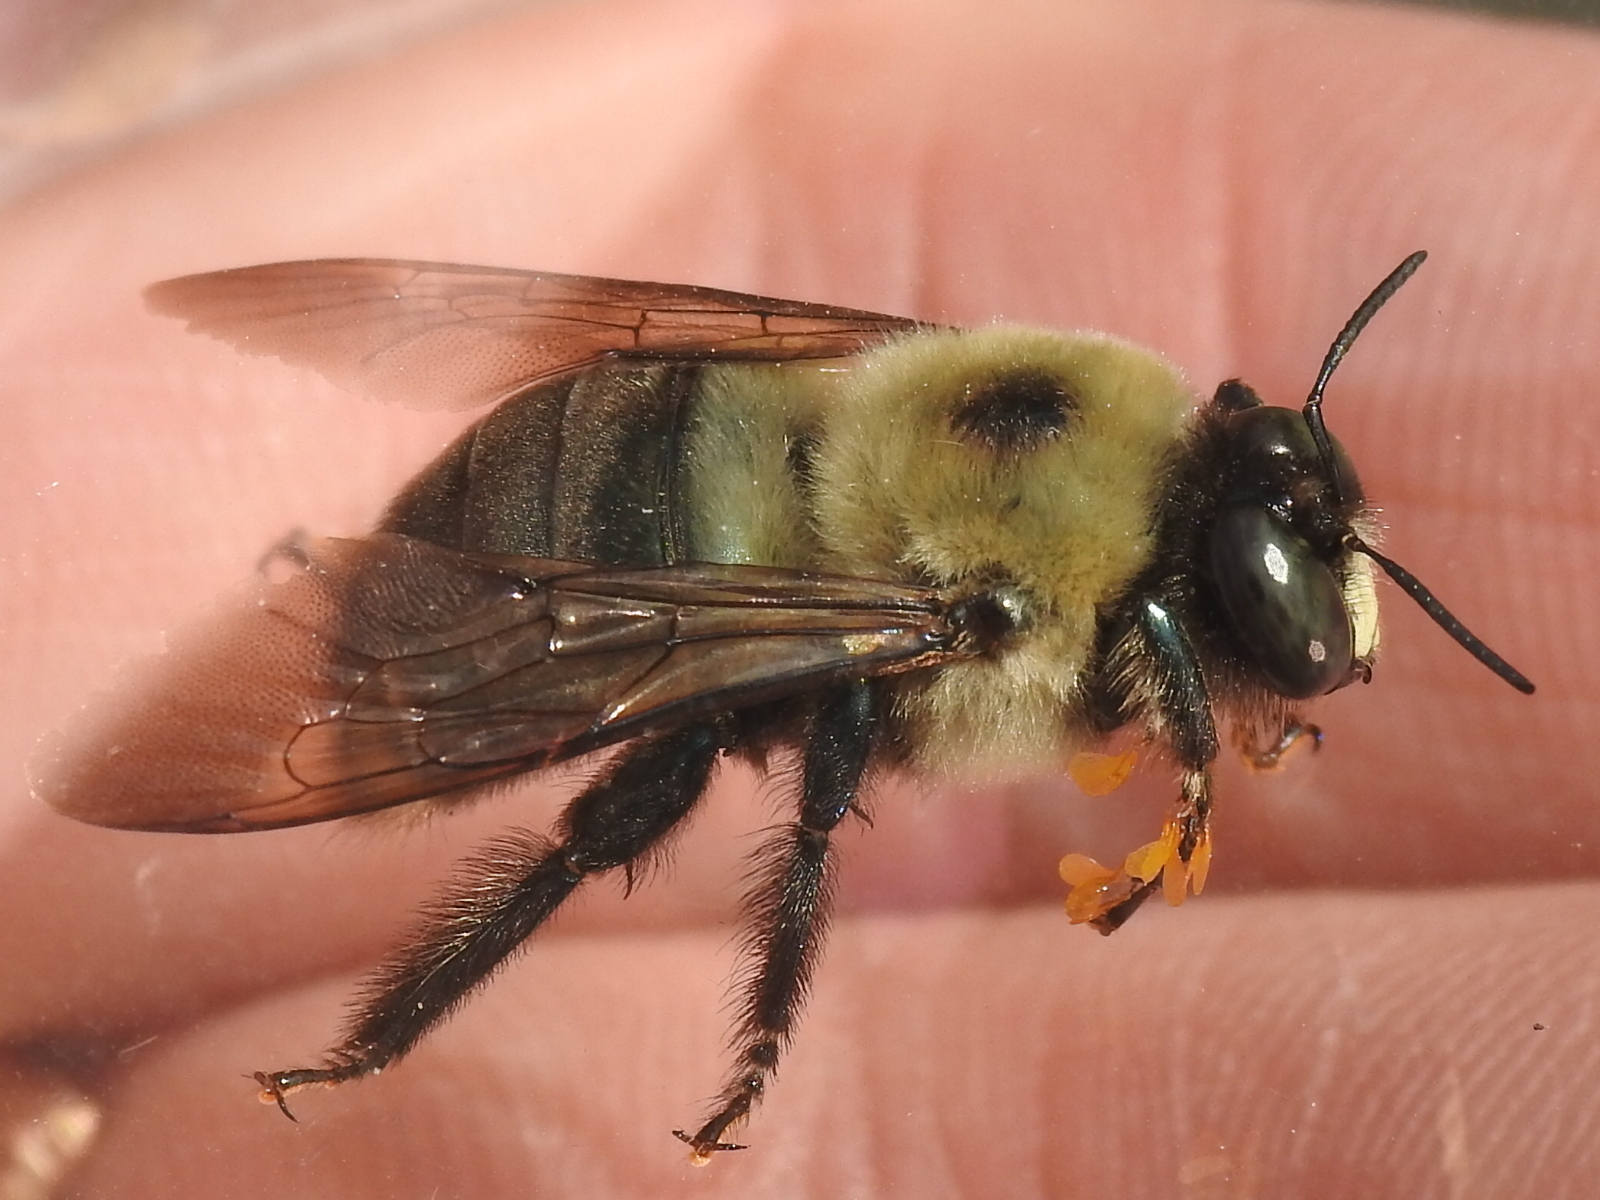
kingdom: Animalia
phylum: Arthropoda
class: Insecta
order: Hymenoptera
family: Apidae
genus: Xylocopa
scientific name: Xylocopa virginica
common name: Carpenter bee
